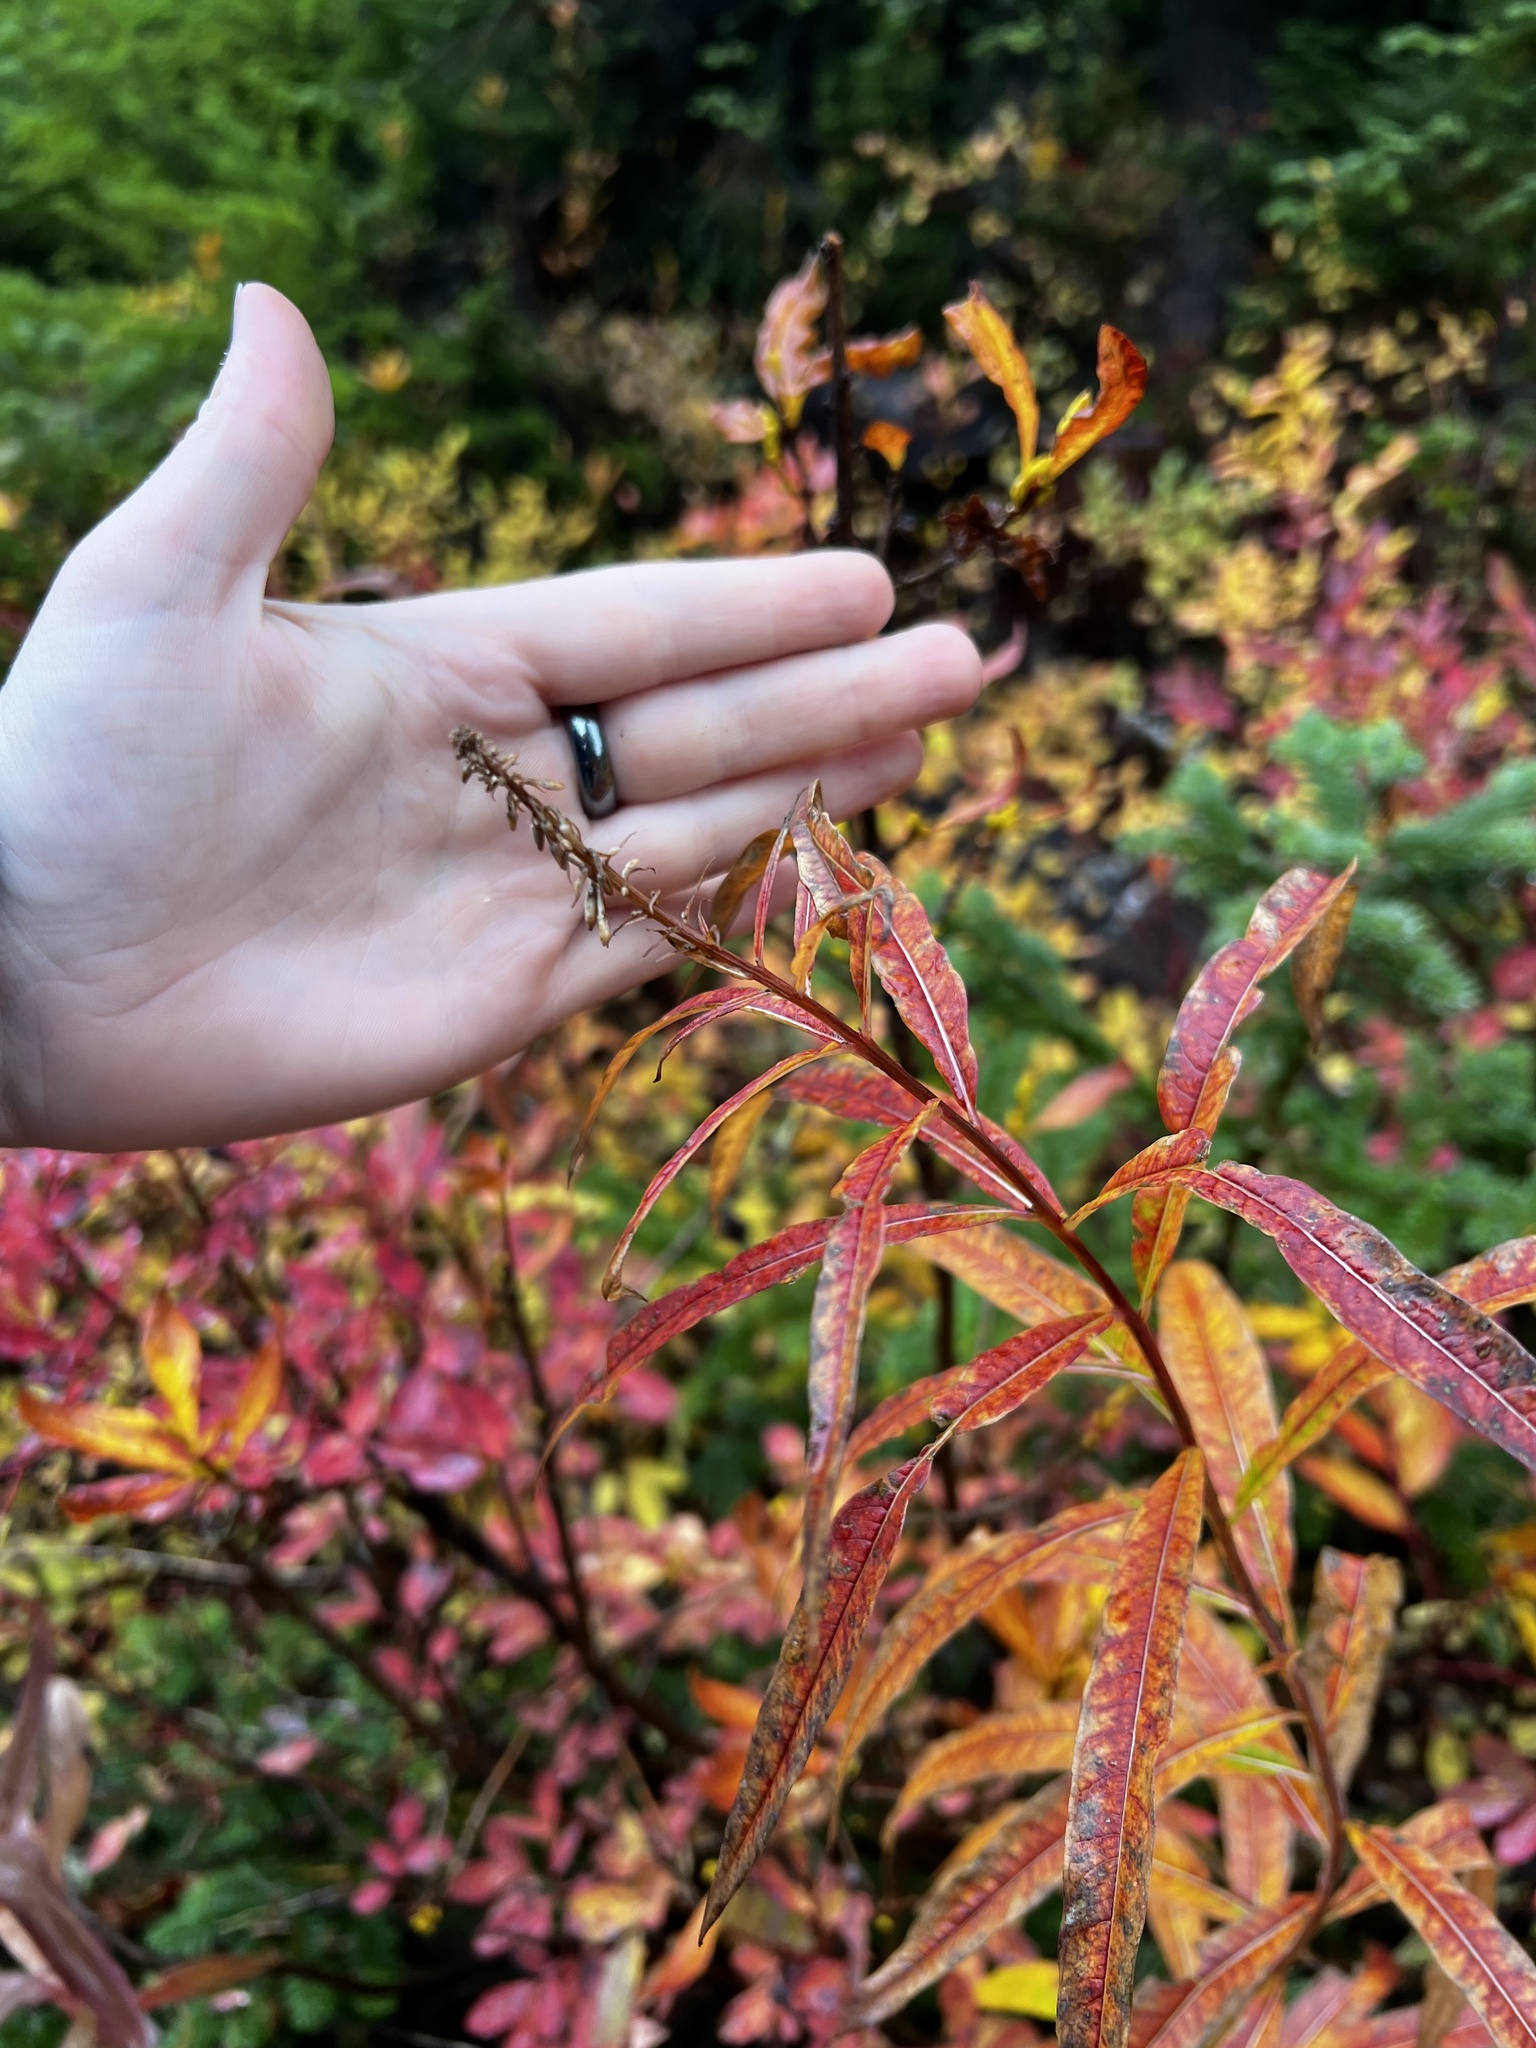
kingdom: Plantae
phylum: Tracheophyta
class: Magnoliopsida
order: Myrtales
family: Onagraceae
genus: Chamaenerion
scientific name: Chamaenerion angustifolium
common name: Fireweed
